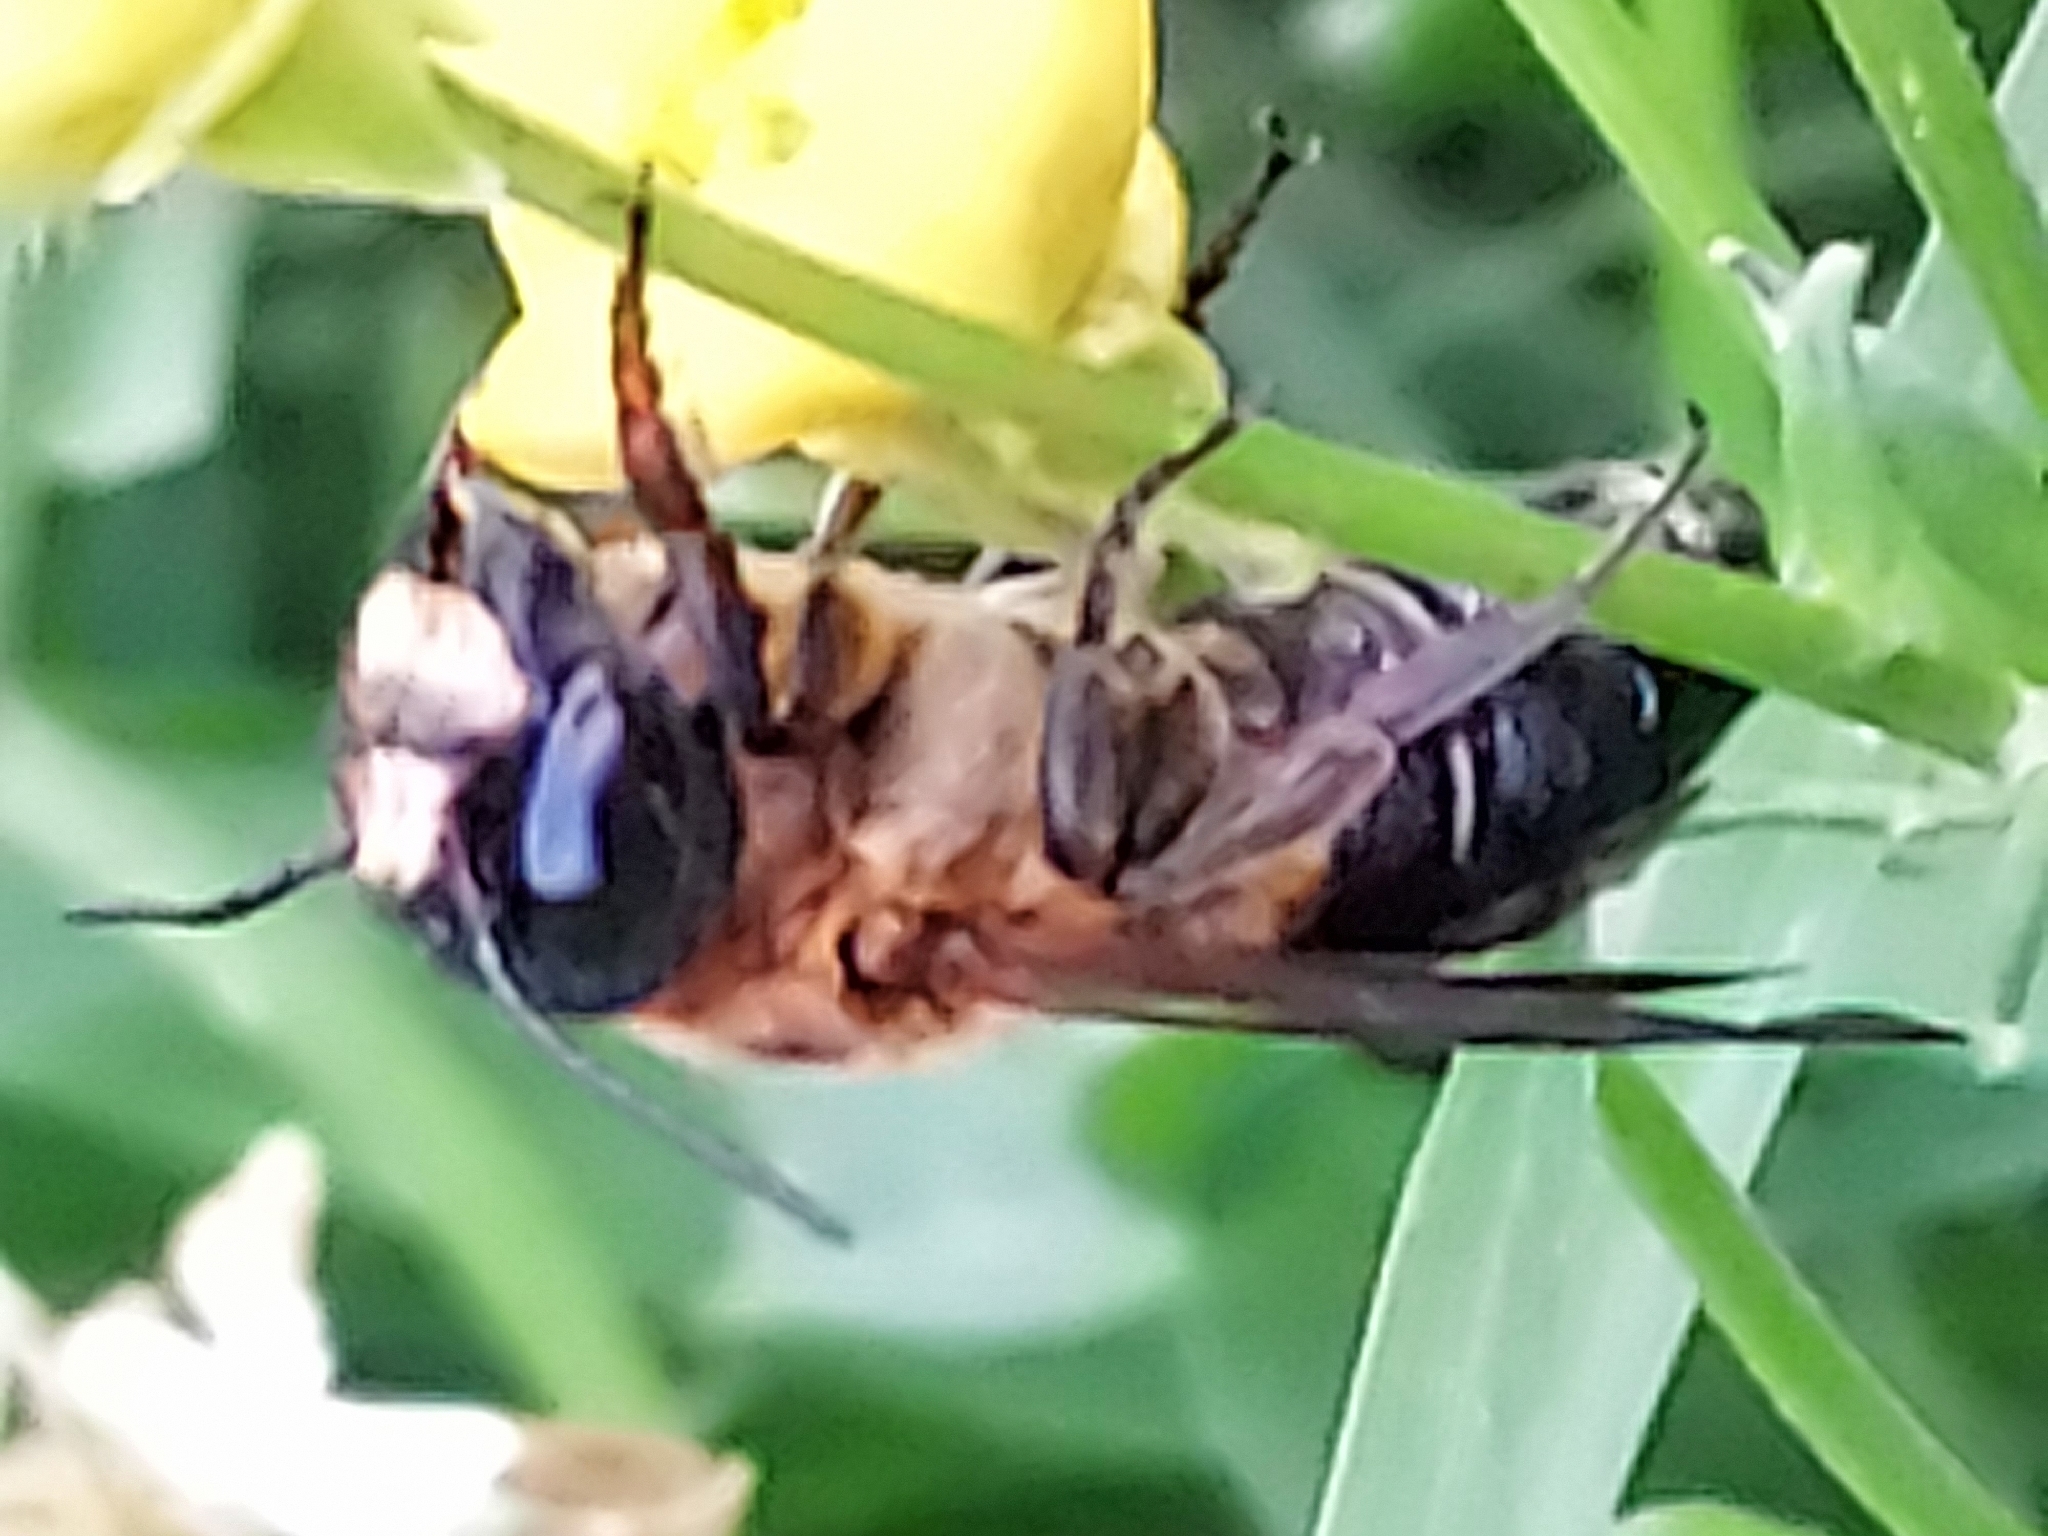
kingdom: Animalia
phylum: Arthropoda
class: Insecta
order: Hymenoptera
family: Megachilidae
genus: Megachile
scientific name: Megachile sculpturalis
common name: Sculptured resin bee
